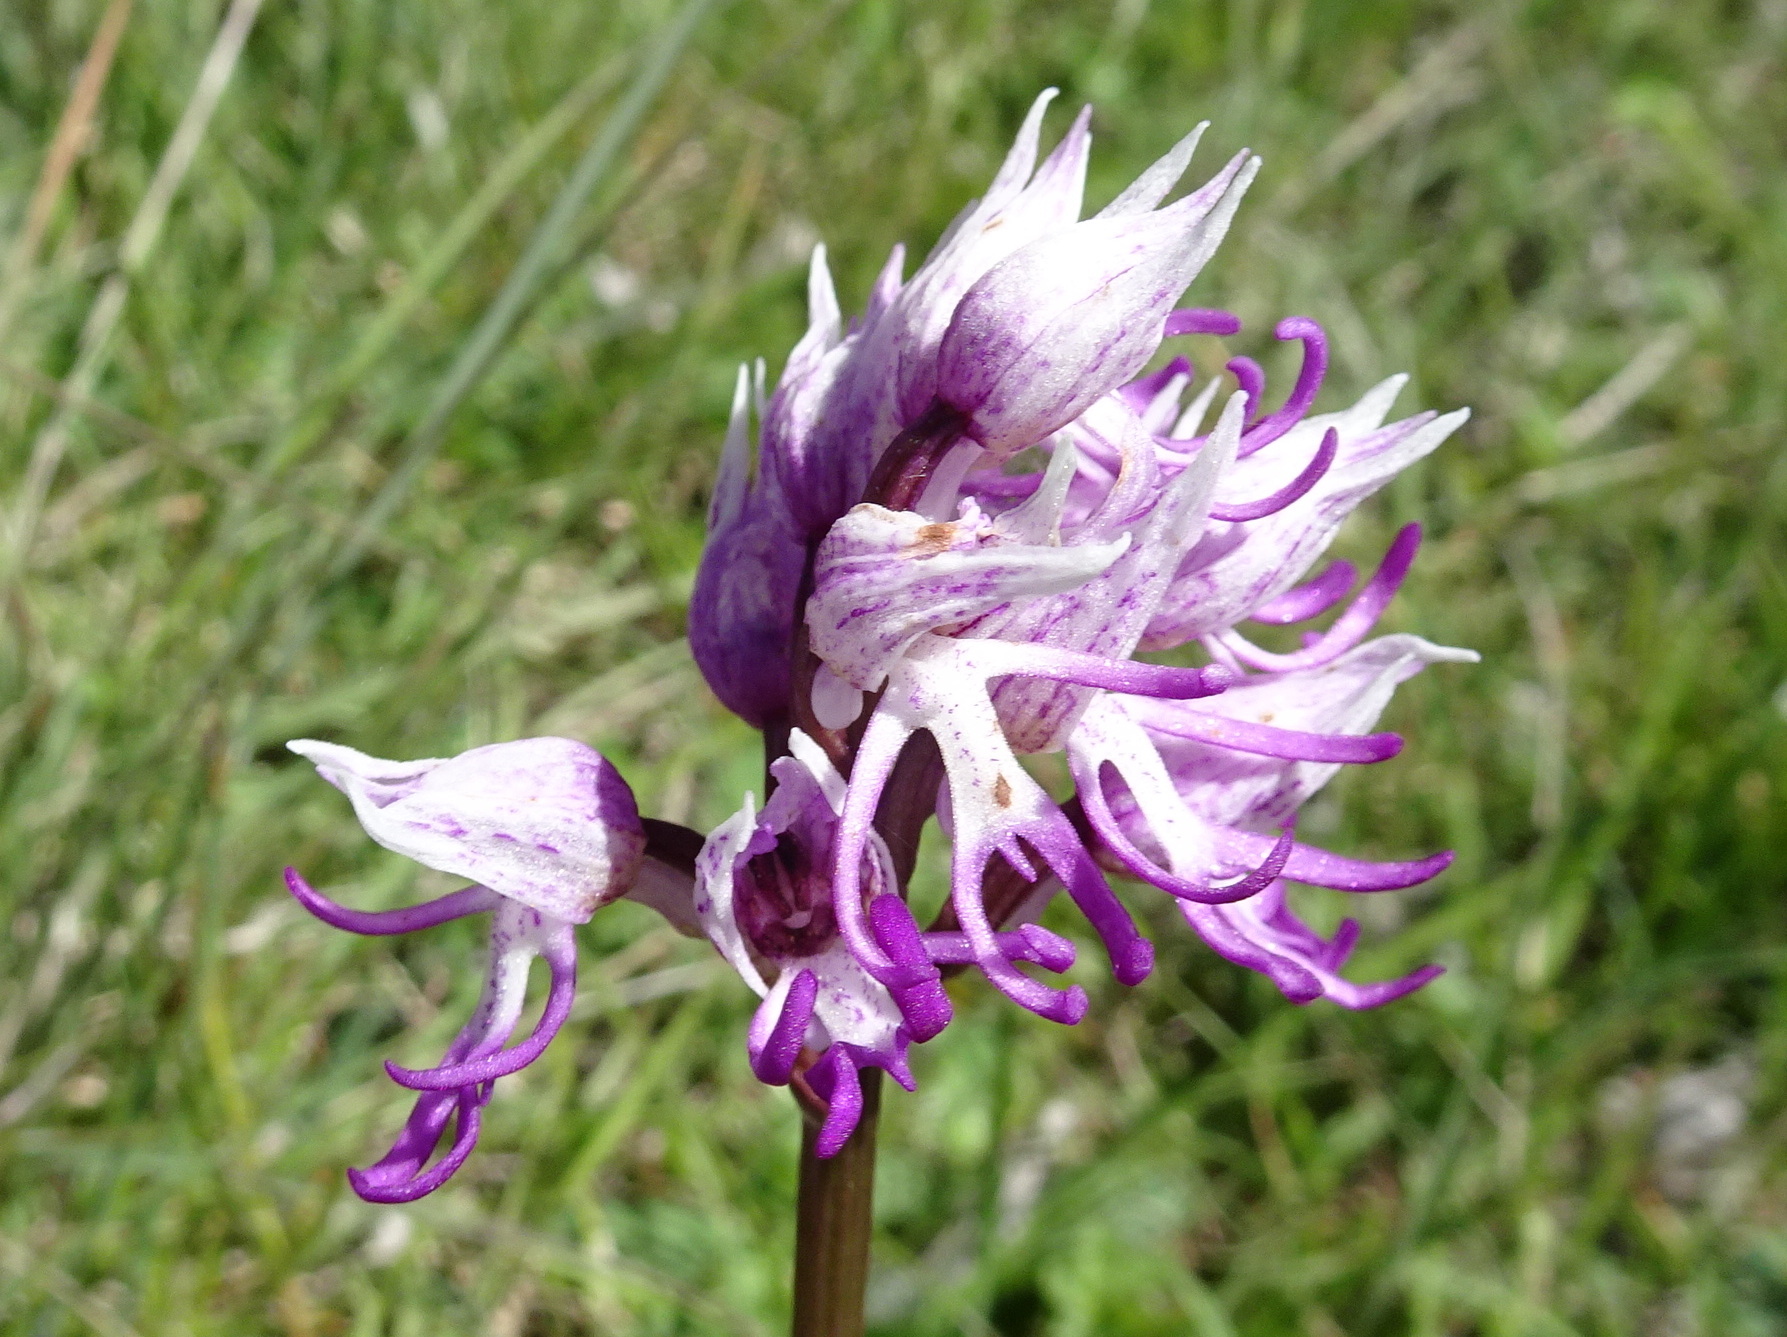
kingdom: Plantae
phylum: Tracheophyta
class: Liliopsida
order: Asparagales
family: Orchidaceae
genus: Orchis
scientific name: Orchis simia
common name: Monkey orchid
